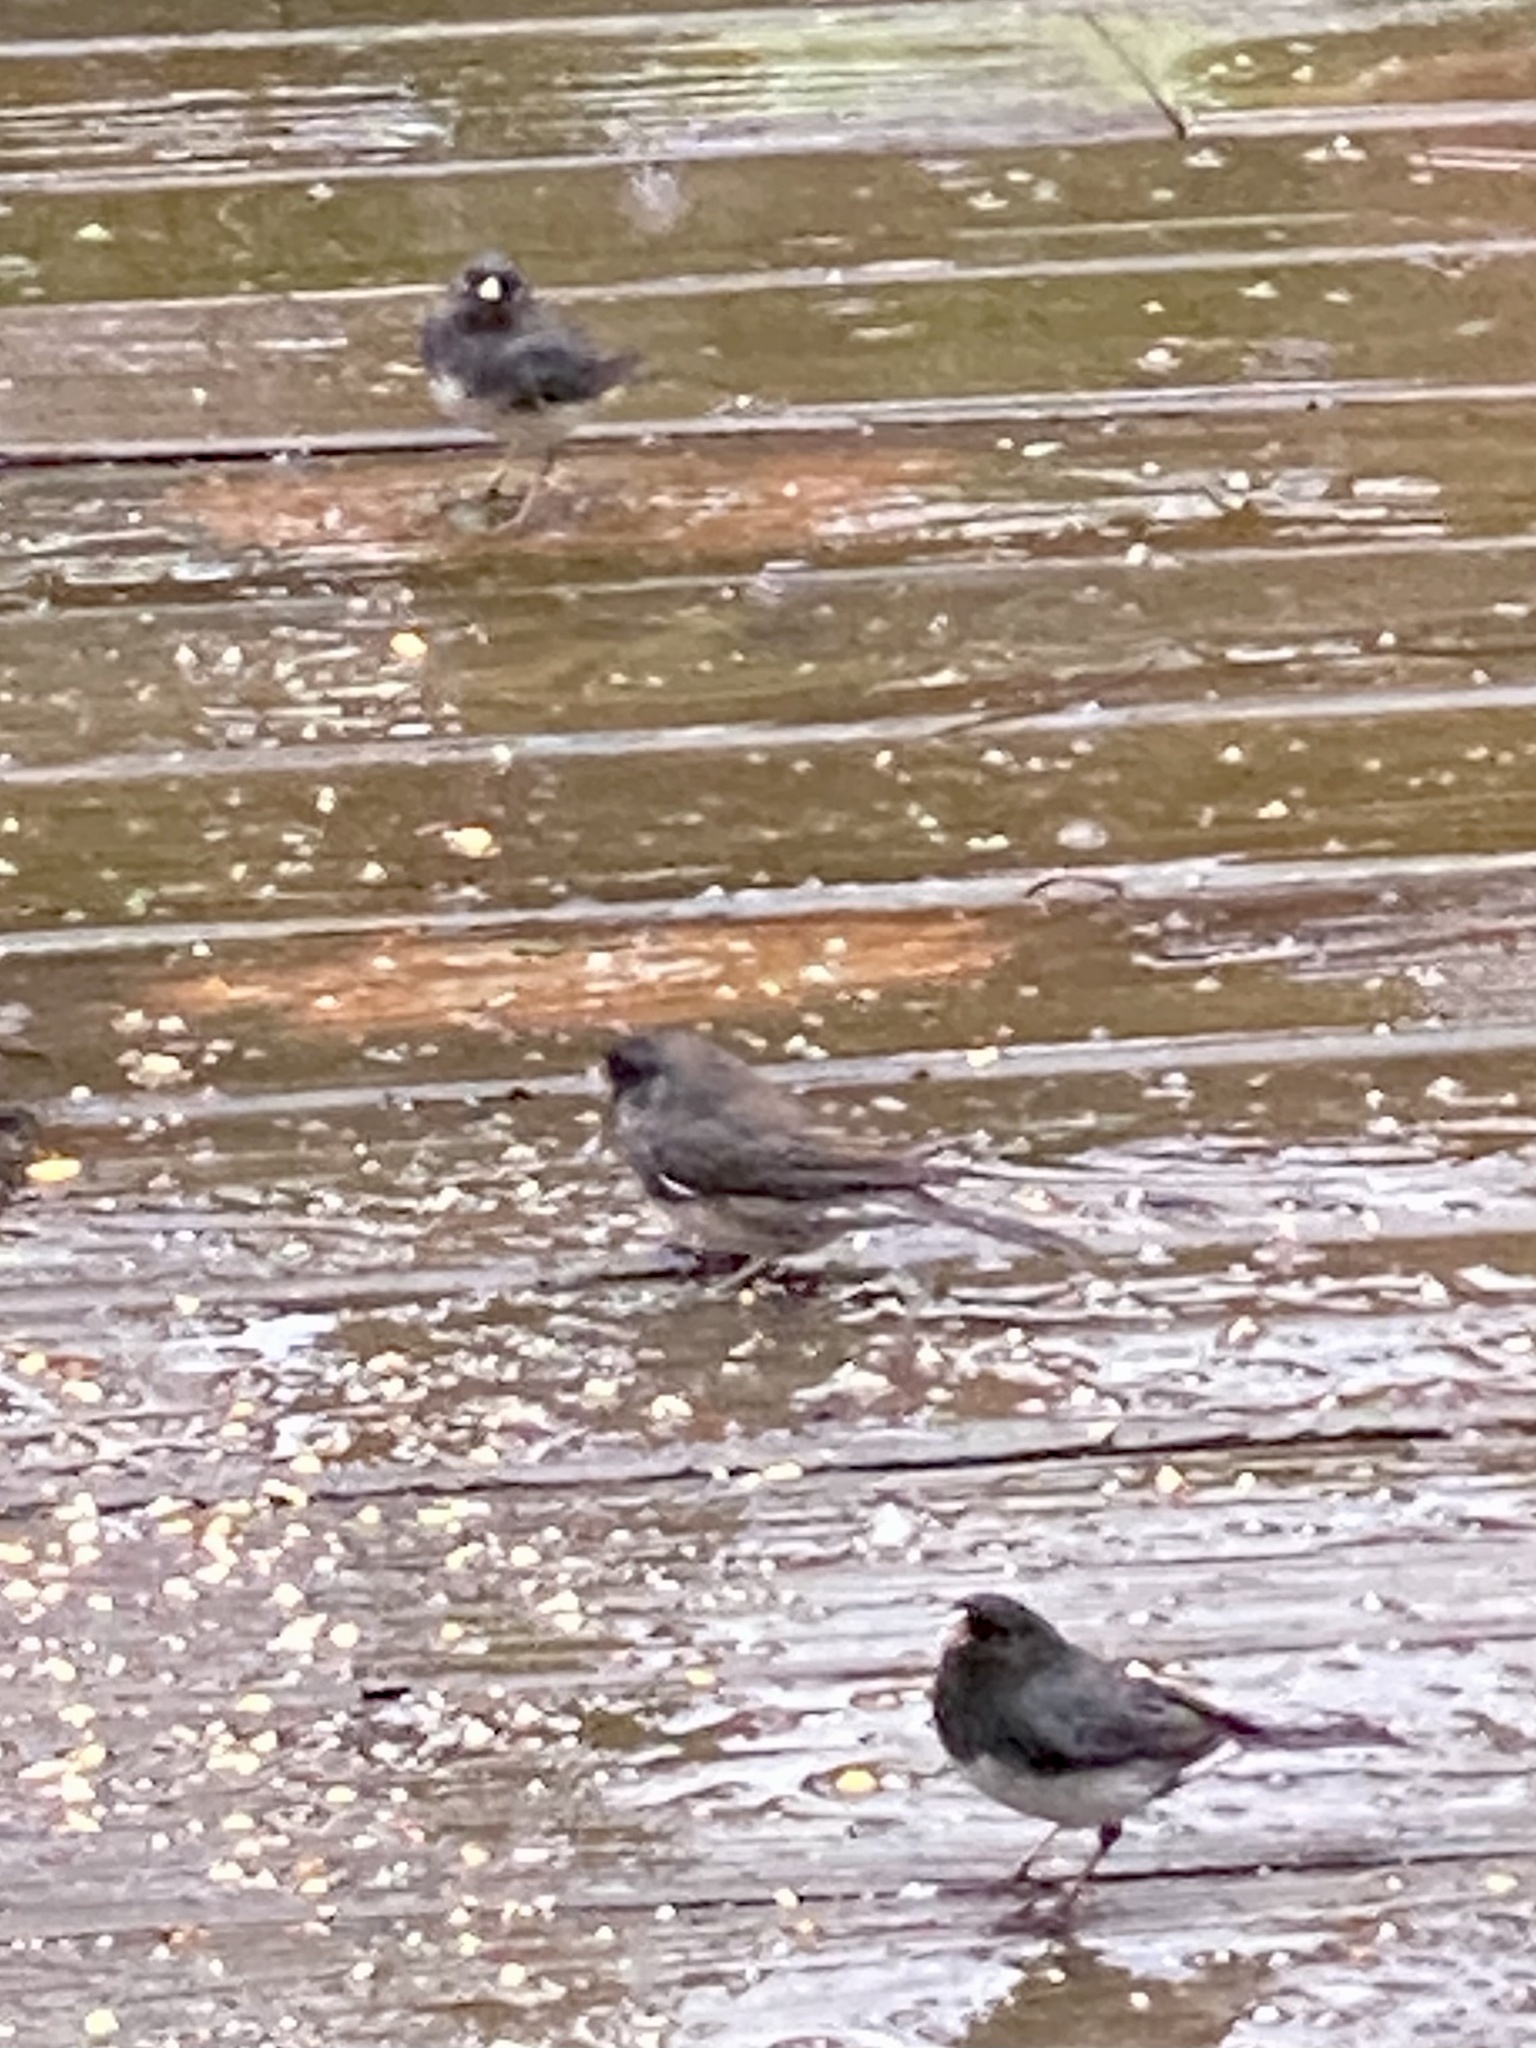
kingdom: Animalia
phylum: Chordata
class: Aves
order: Passeriformes
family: Passerellidae
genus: Junco
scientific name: Junco hyemalis
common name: Dark-eyed junco
